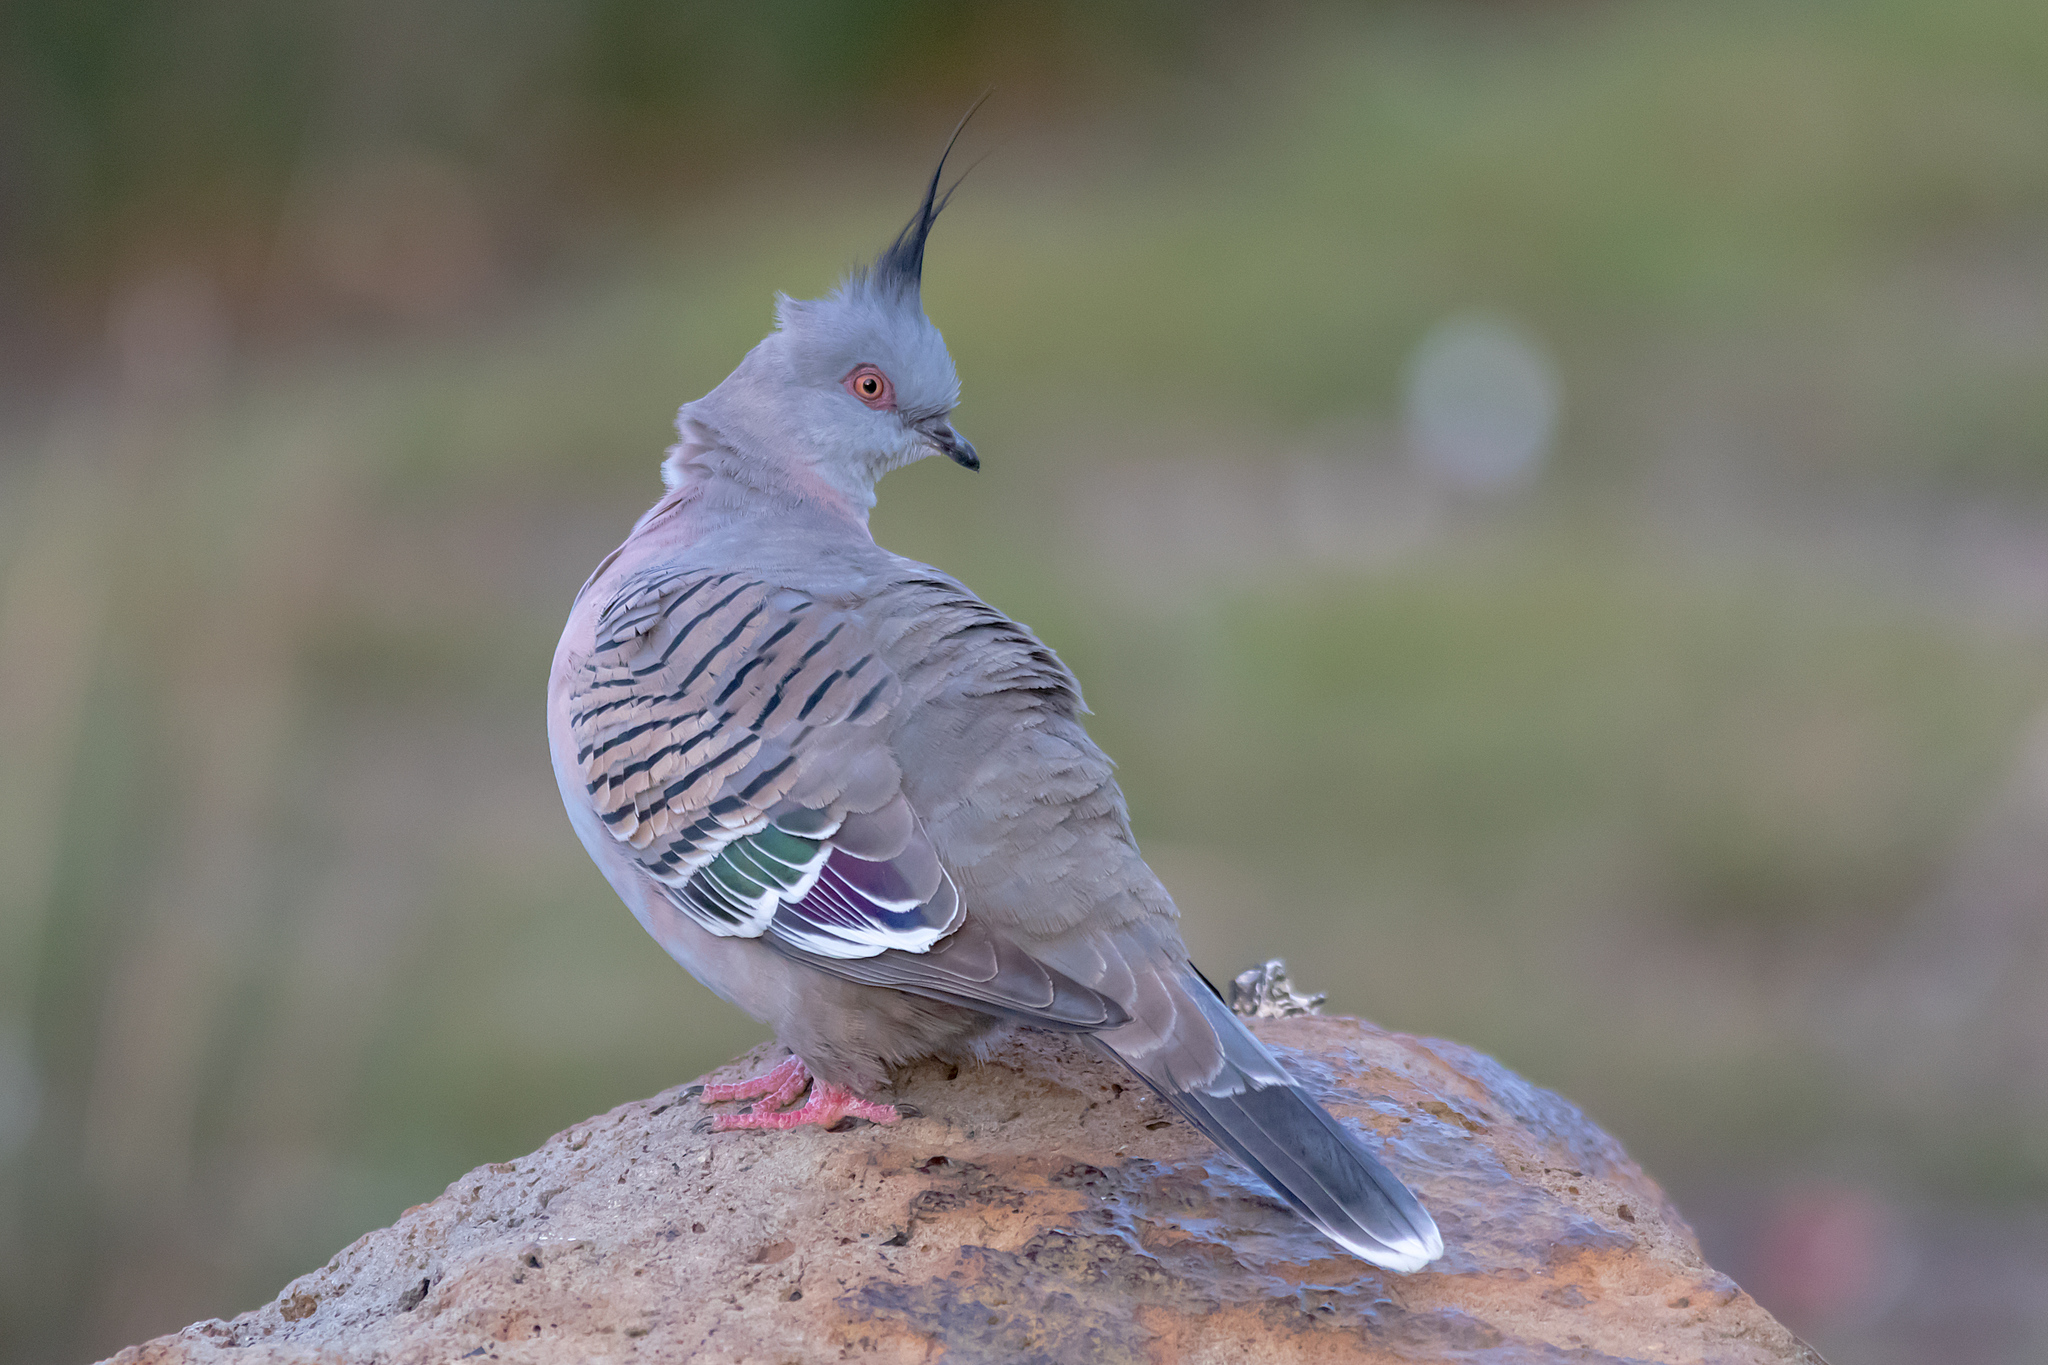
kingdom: Animalia
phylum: Chordata
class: Aves
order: Columbiformes
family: Columbidae
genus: Ocyphaps
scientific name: Ocyphaps lophotes
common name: Crested pigeon
